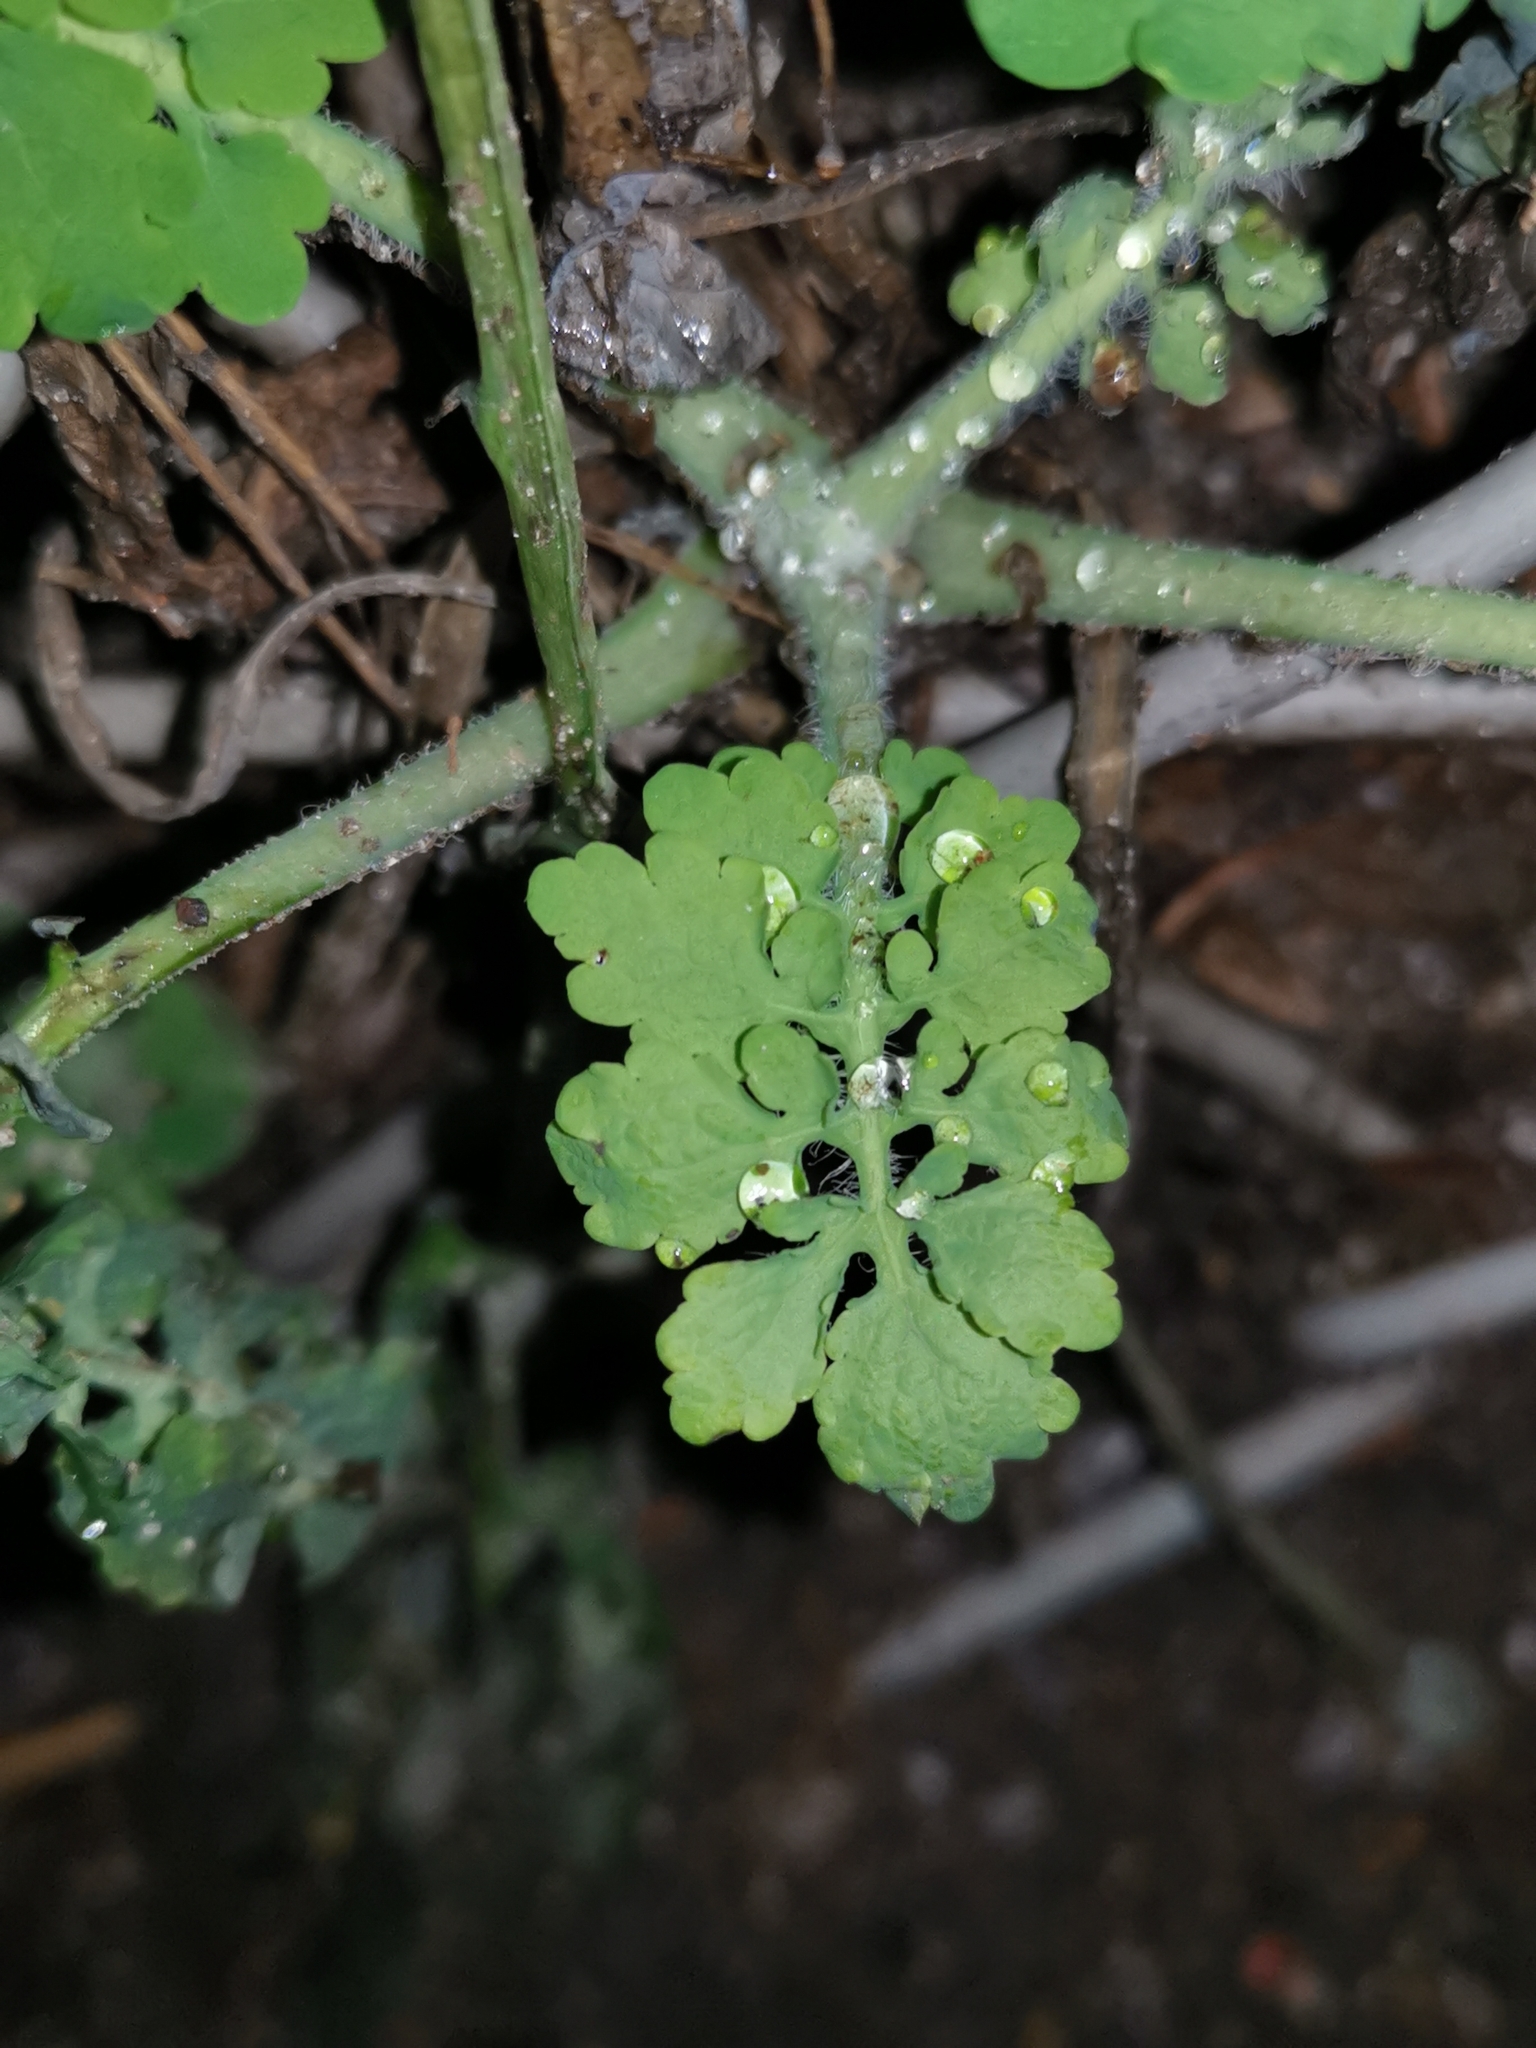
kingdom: Plantae
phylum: Tracheophyta
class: Magnoliopsida
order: Ranunculales
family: Papaveraceae
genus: Chelidonium
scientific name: Chelidonium majus
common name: Greater celandine
